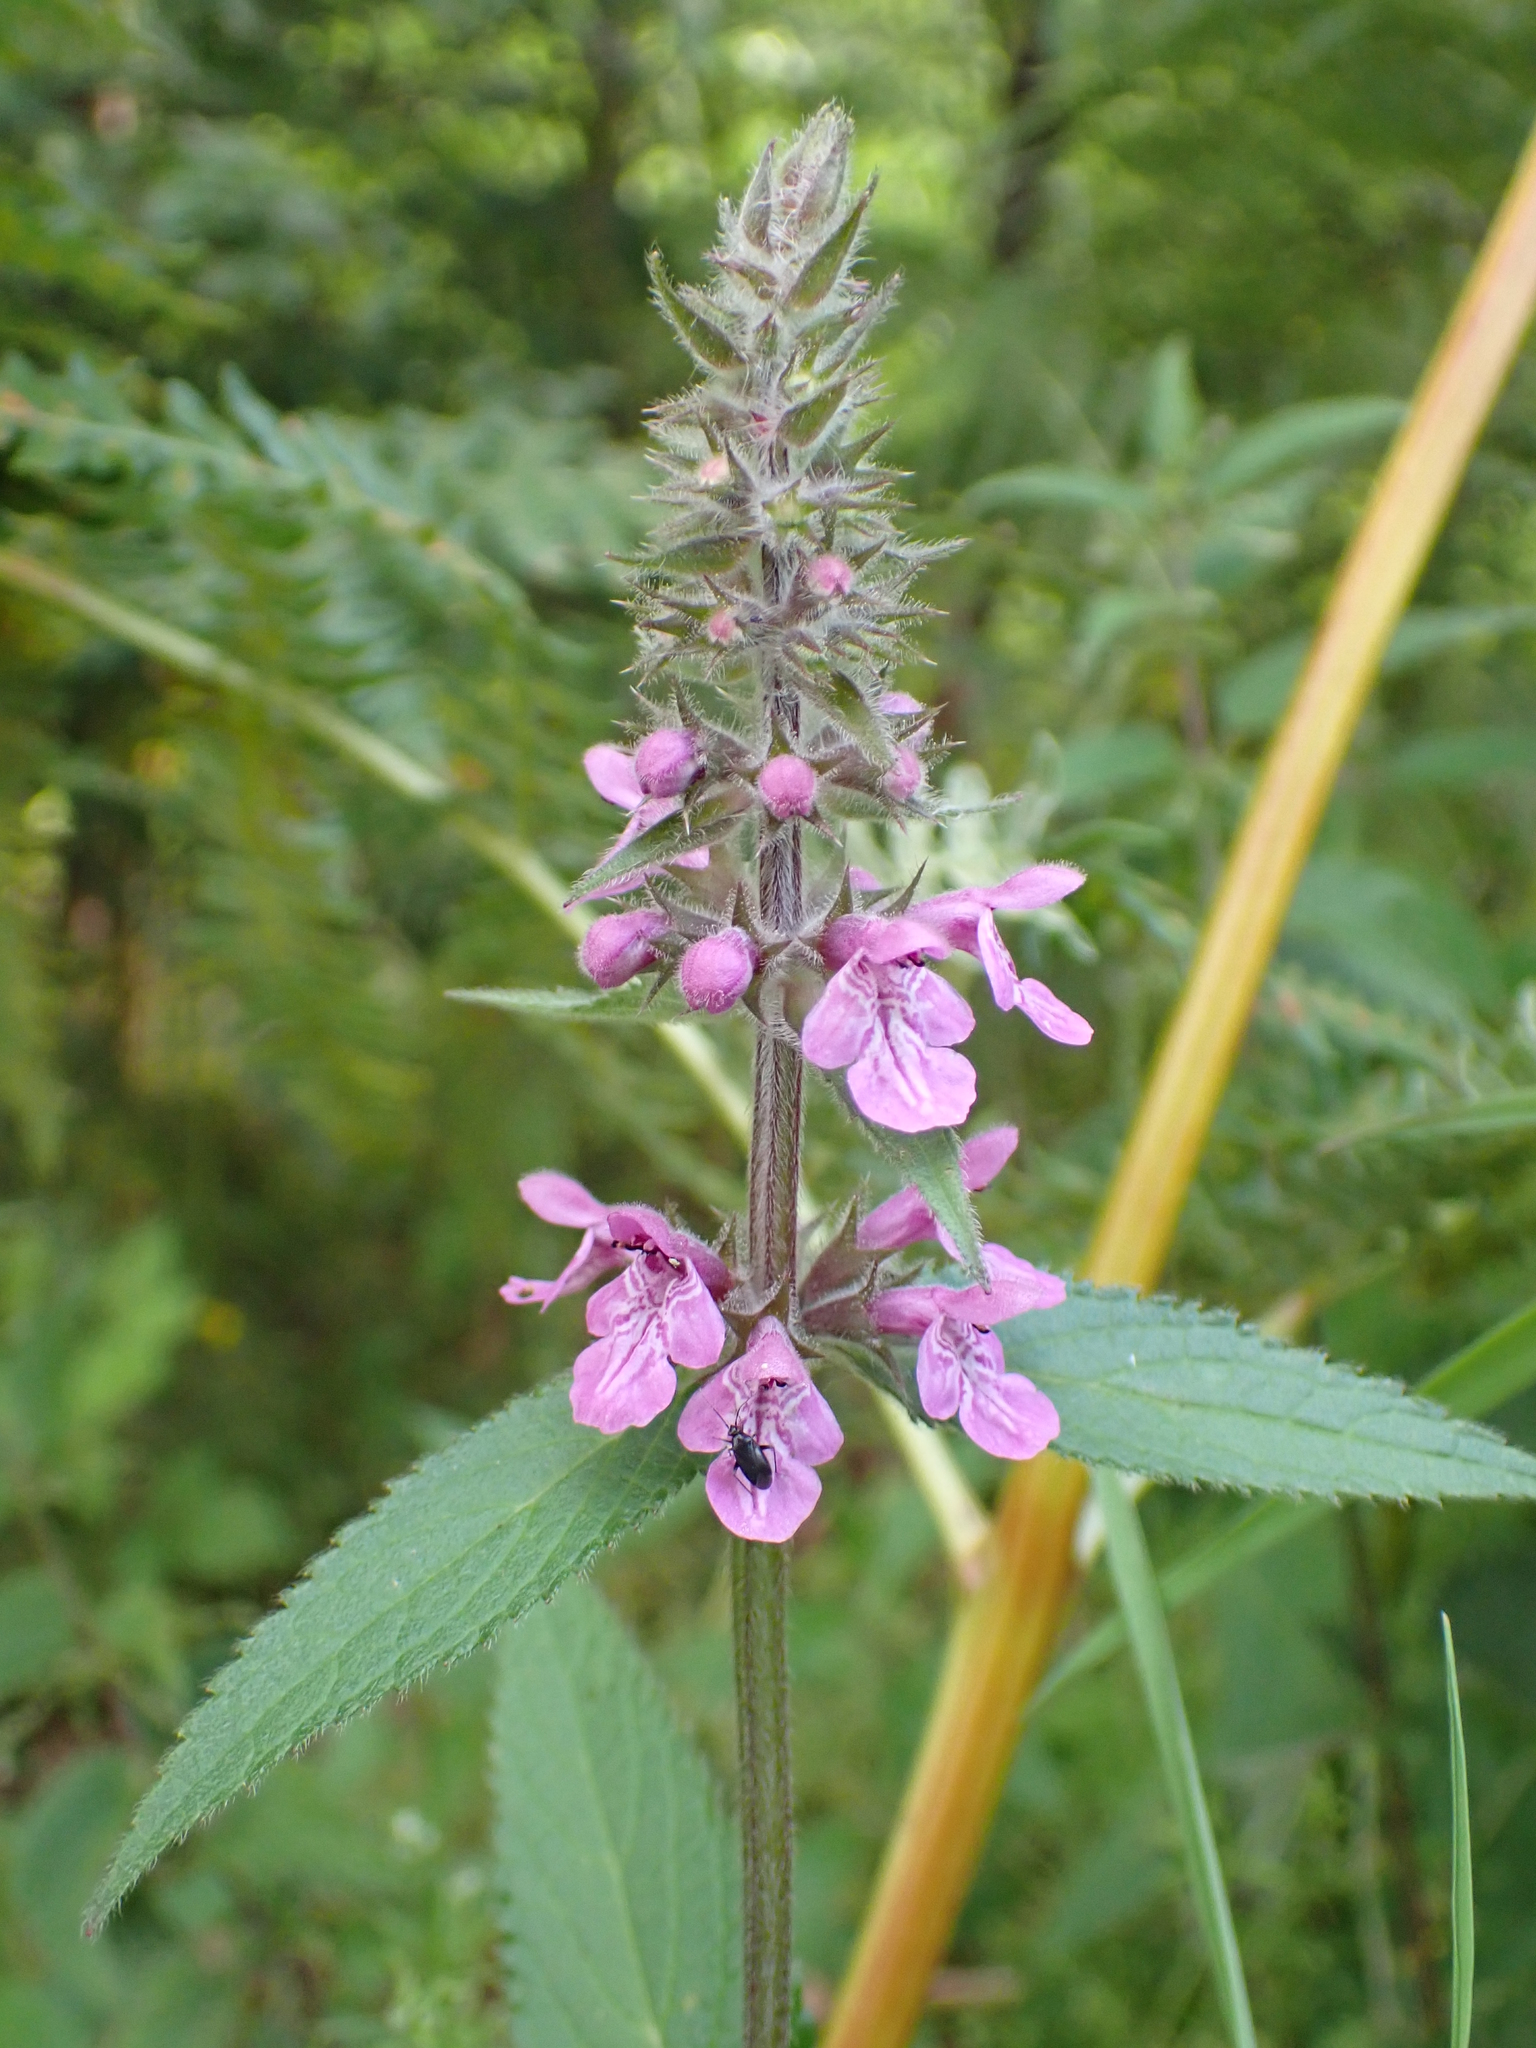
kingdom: Plantae
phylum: Tracheophyta
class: Magnoliopsida
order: Lamiales
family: Lamiaceae
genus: Stachys
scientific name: Stachys palustris
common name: Marsh woundwort
